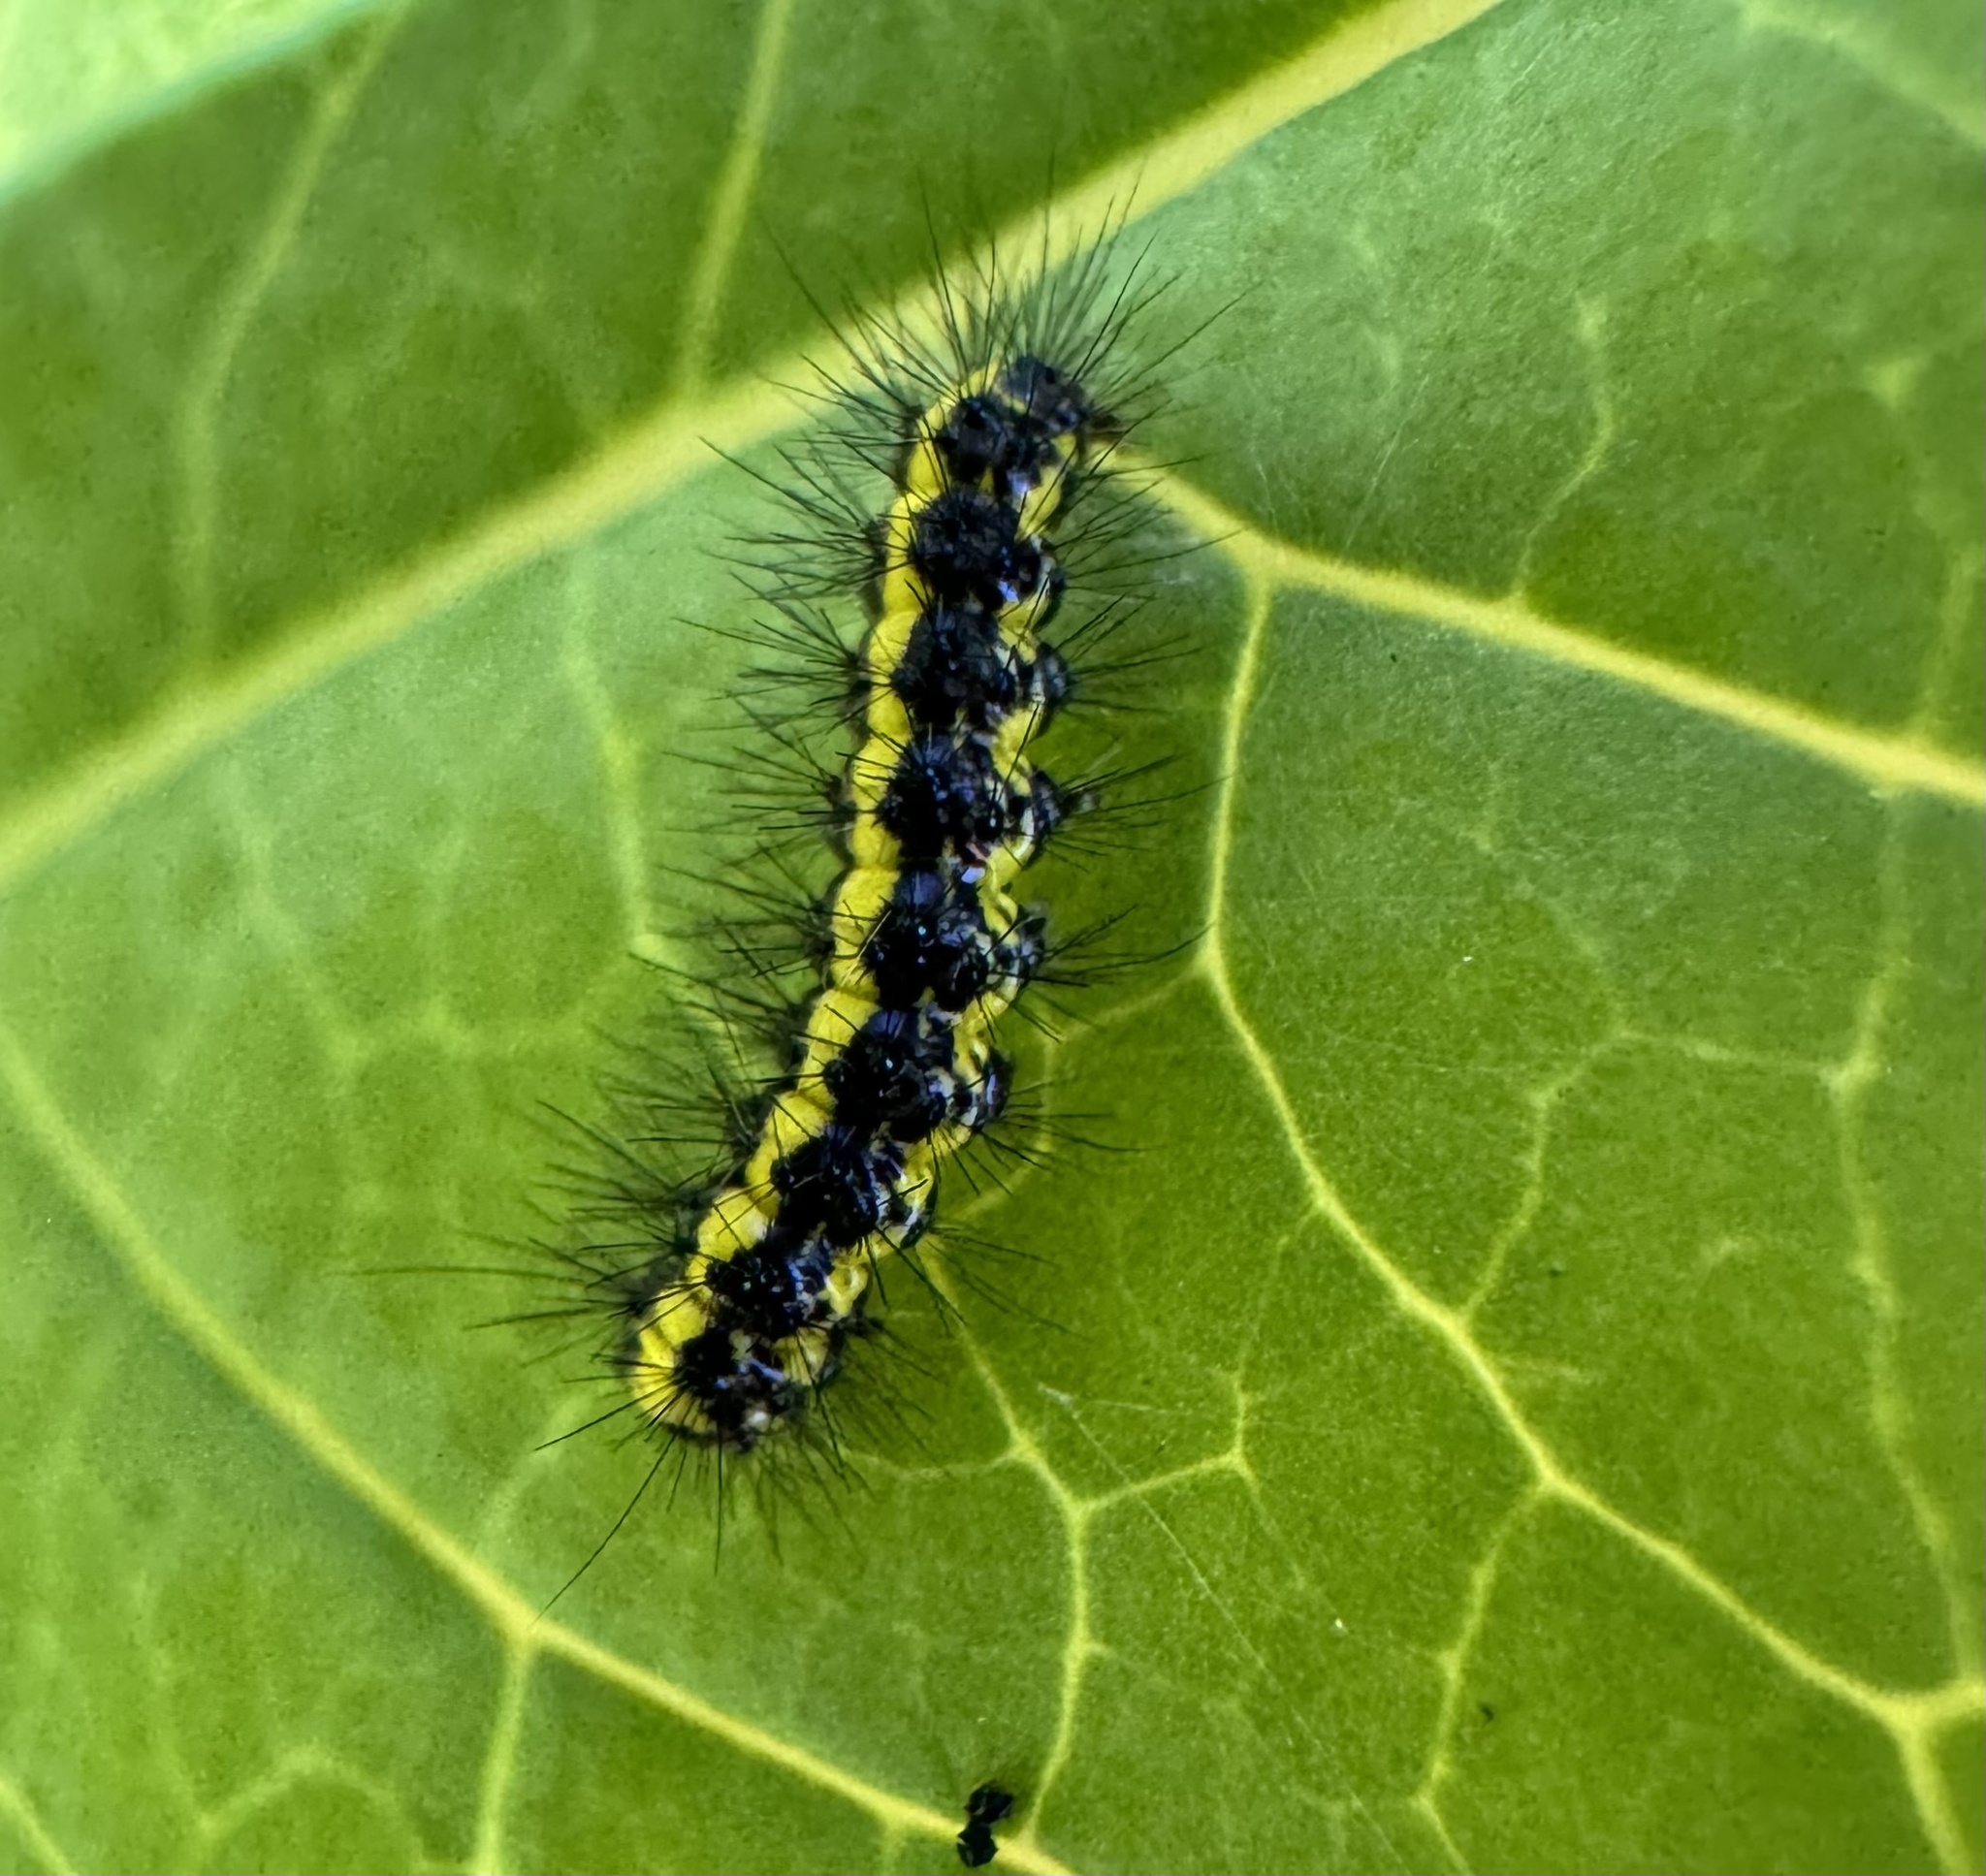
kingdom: Animalia
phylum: Arthropoda
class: Insecta
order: Lepidoptera
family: Erebidae
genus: Gnophaela
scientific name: Gnophaela latipennis
